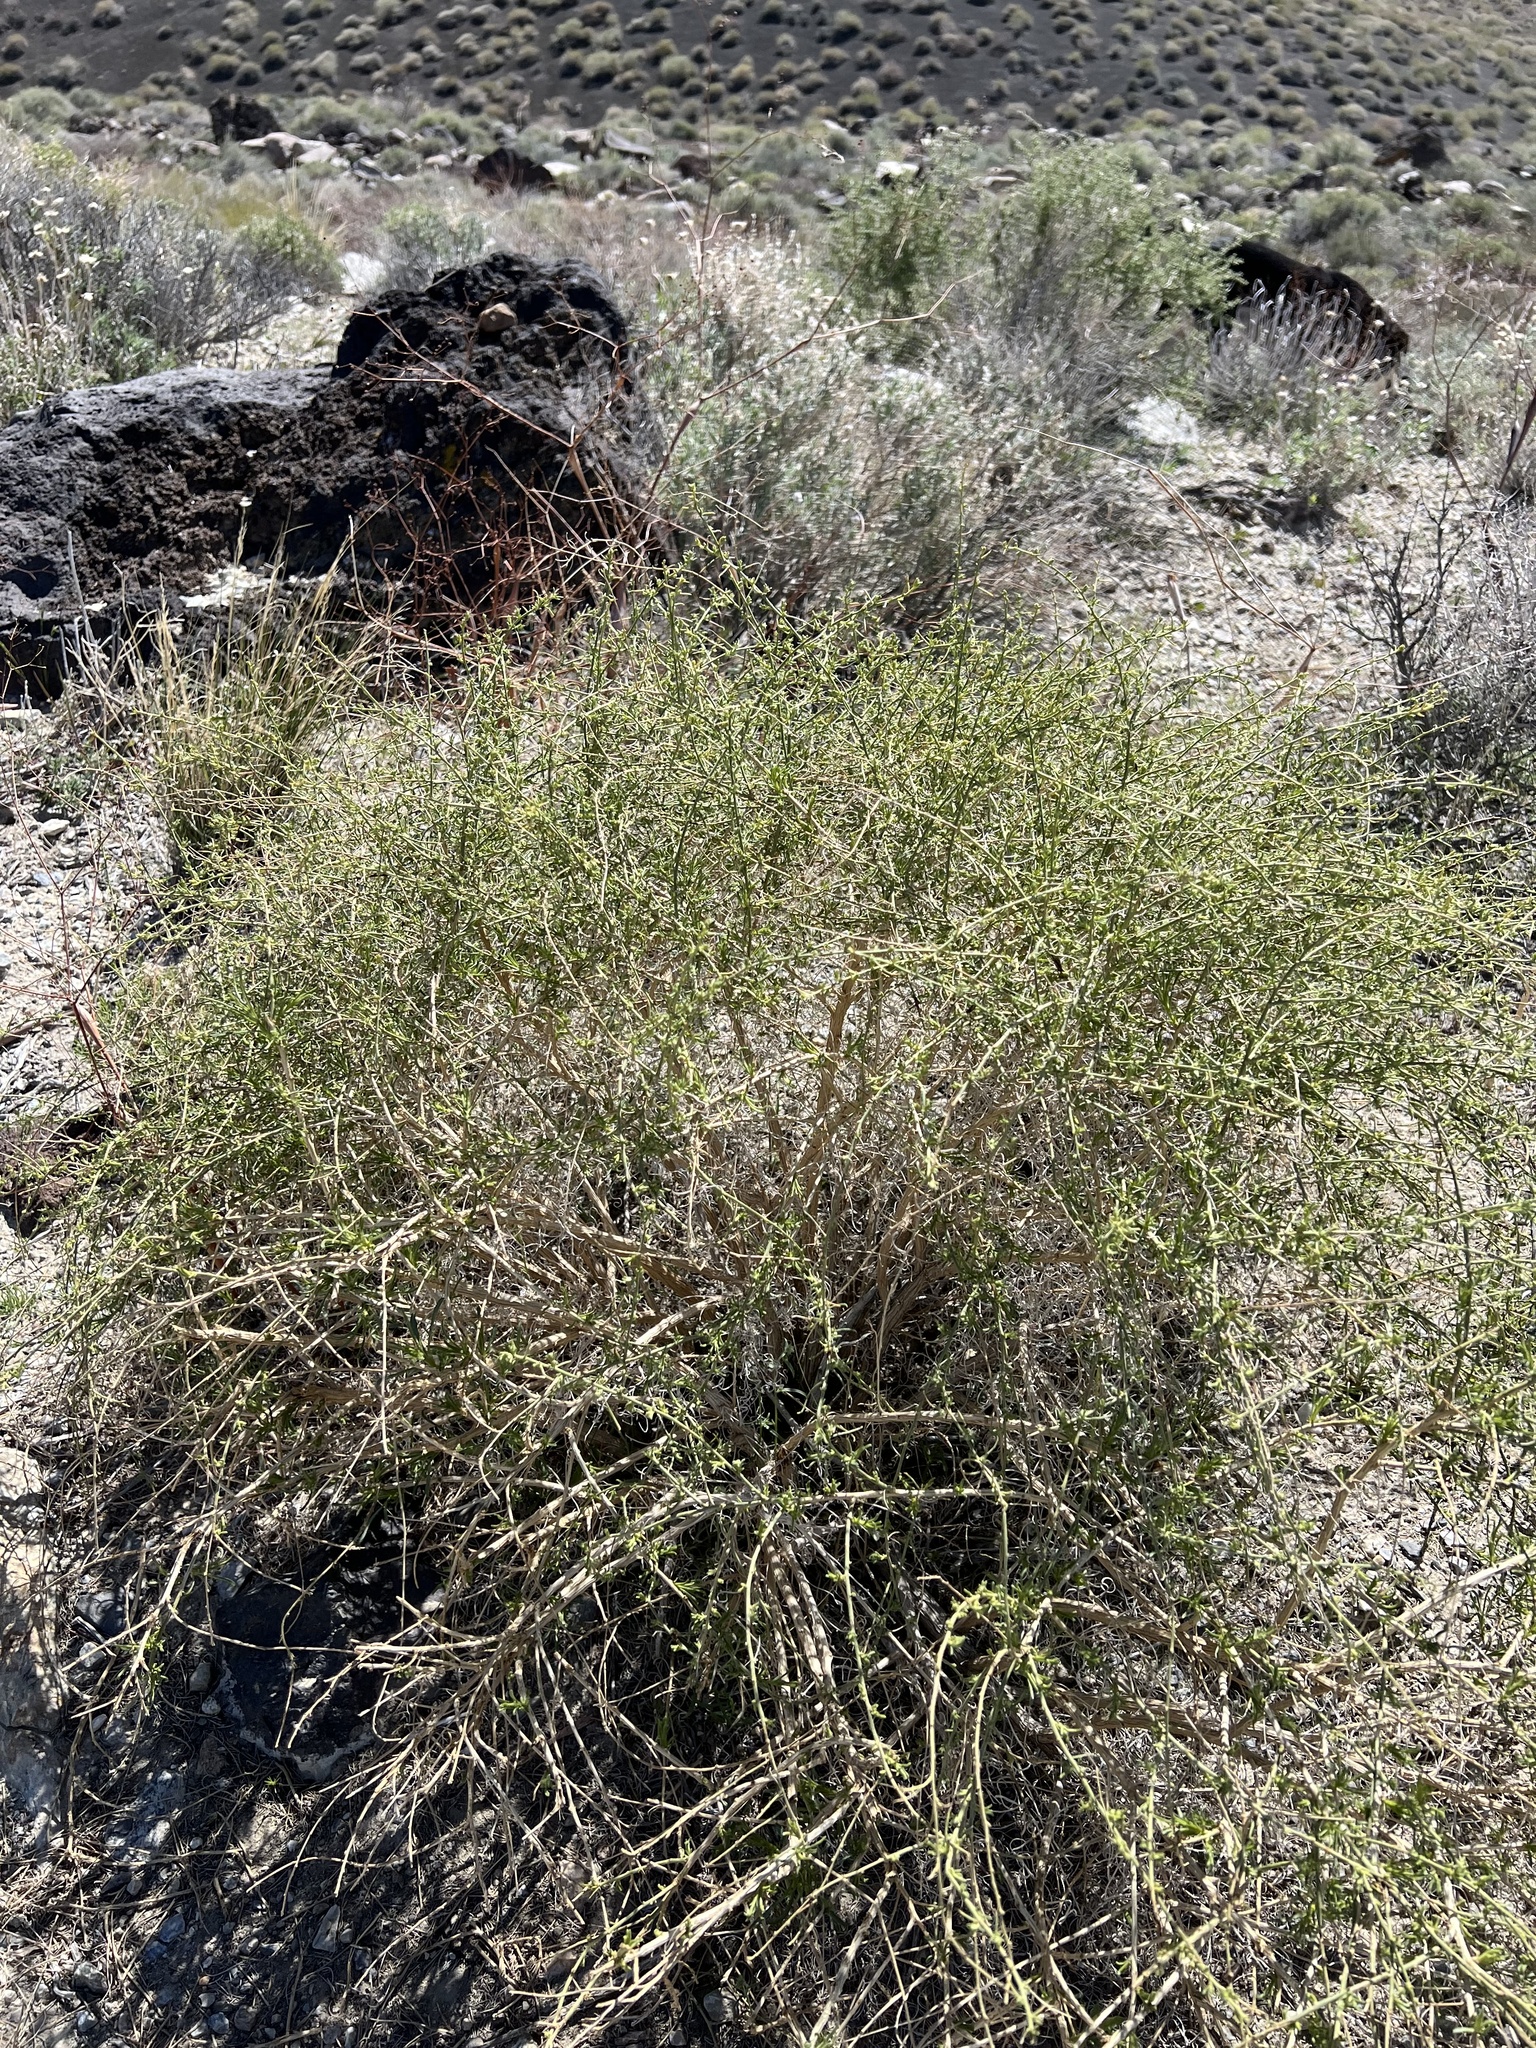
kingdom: Plantae
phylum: Tracheophyta
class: Magnoliopsida
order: Asterales
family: Asteraceae
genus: Ambrosia
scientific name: Ambrosia salsola
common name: Burrobrush
